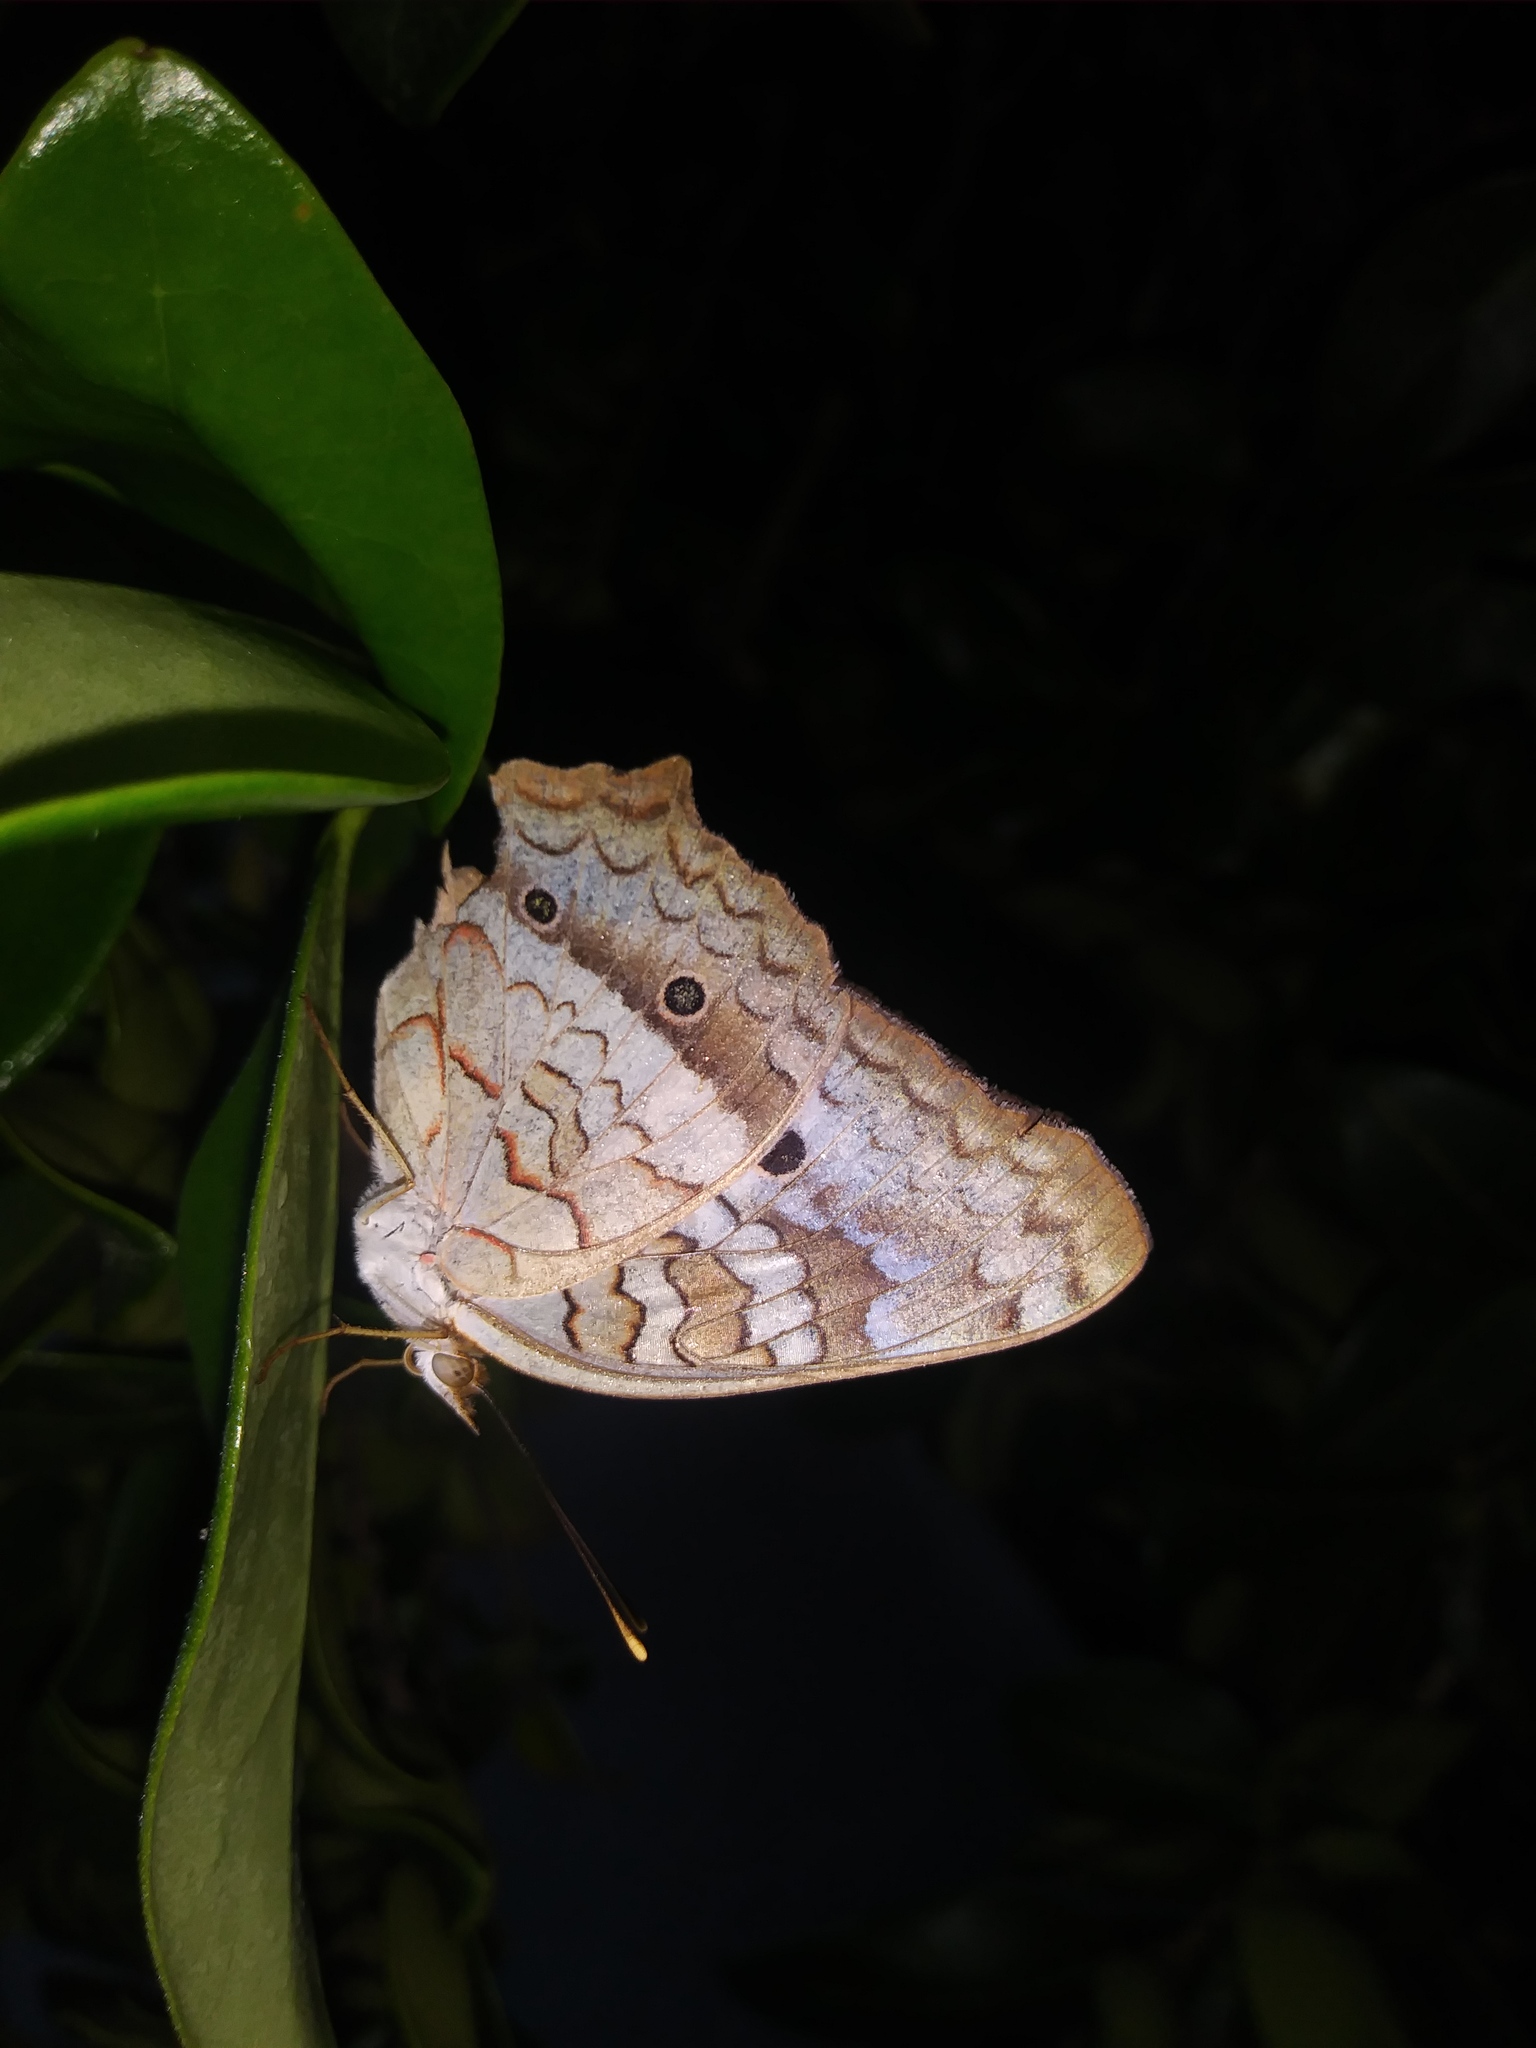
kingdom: Animalia
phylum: Arthropoda
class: Insecta
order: Lepidoptera
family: Nymphalidae
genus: Anartia
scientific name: Anartia jatrophae
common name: White peacock
